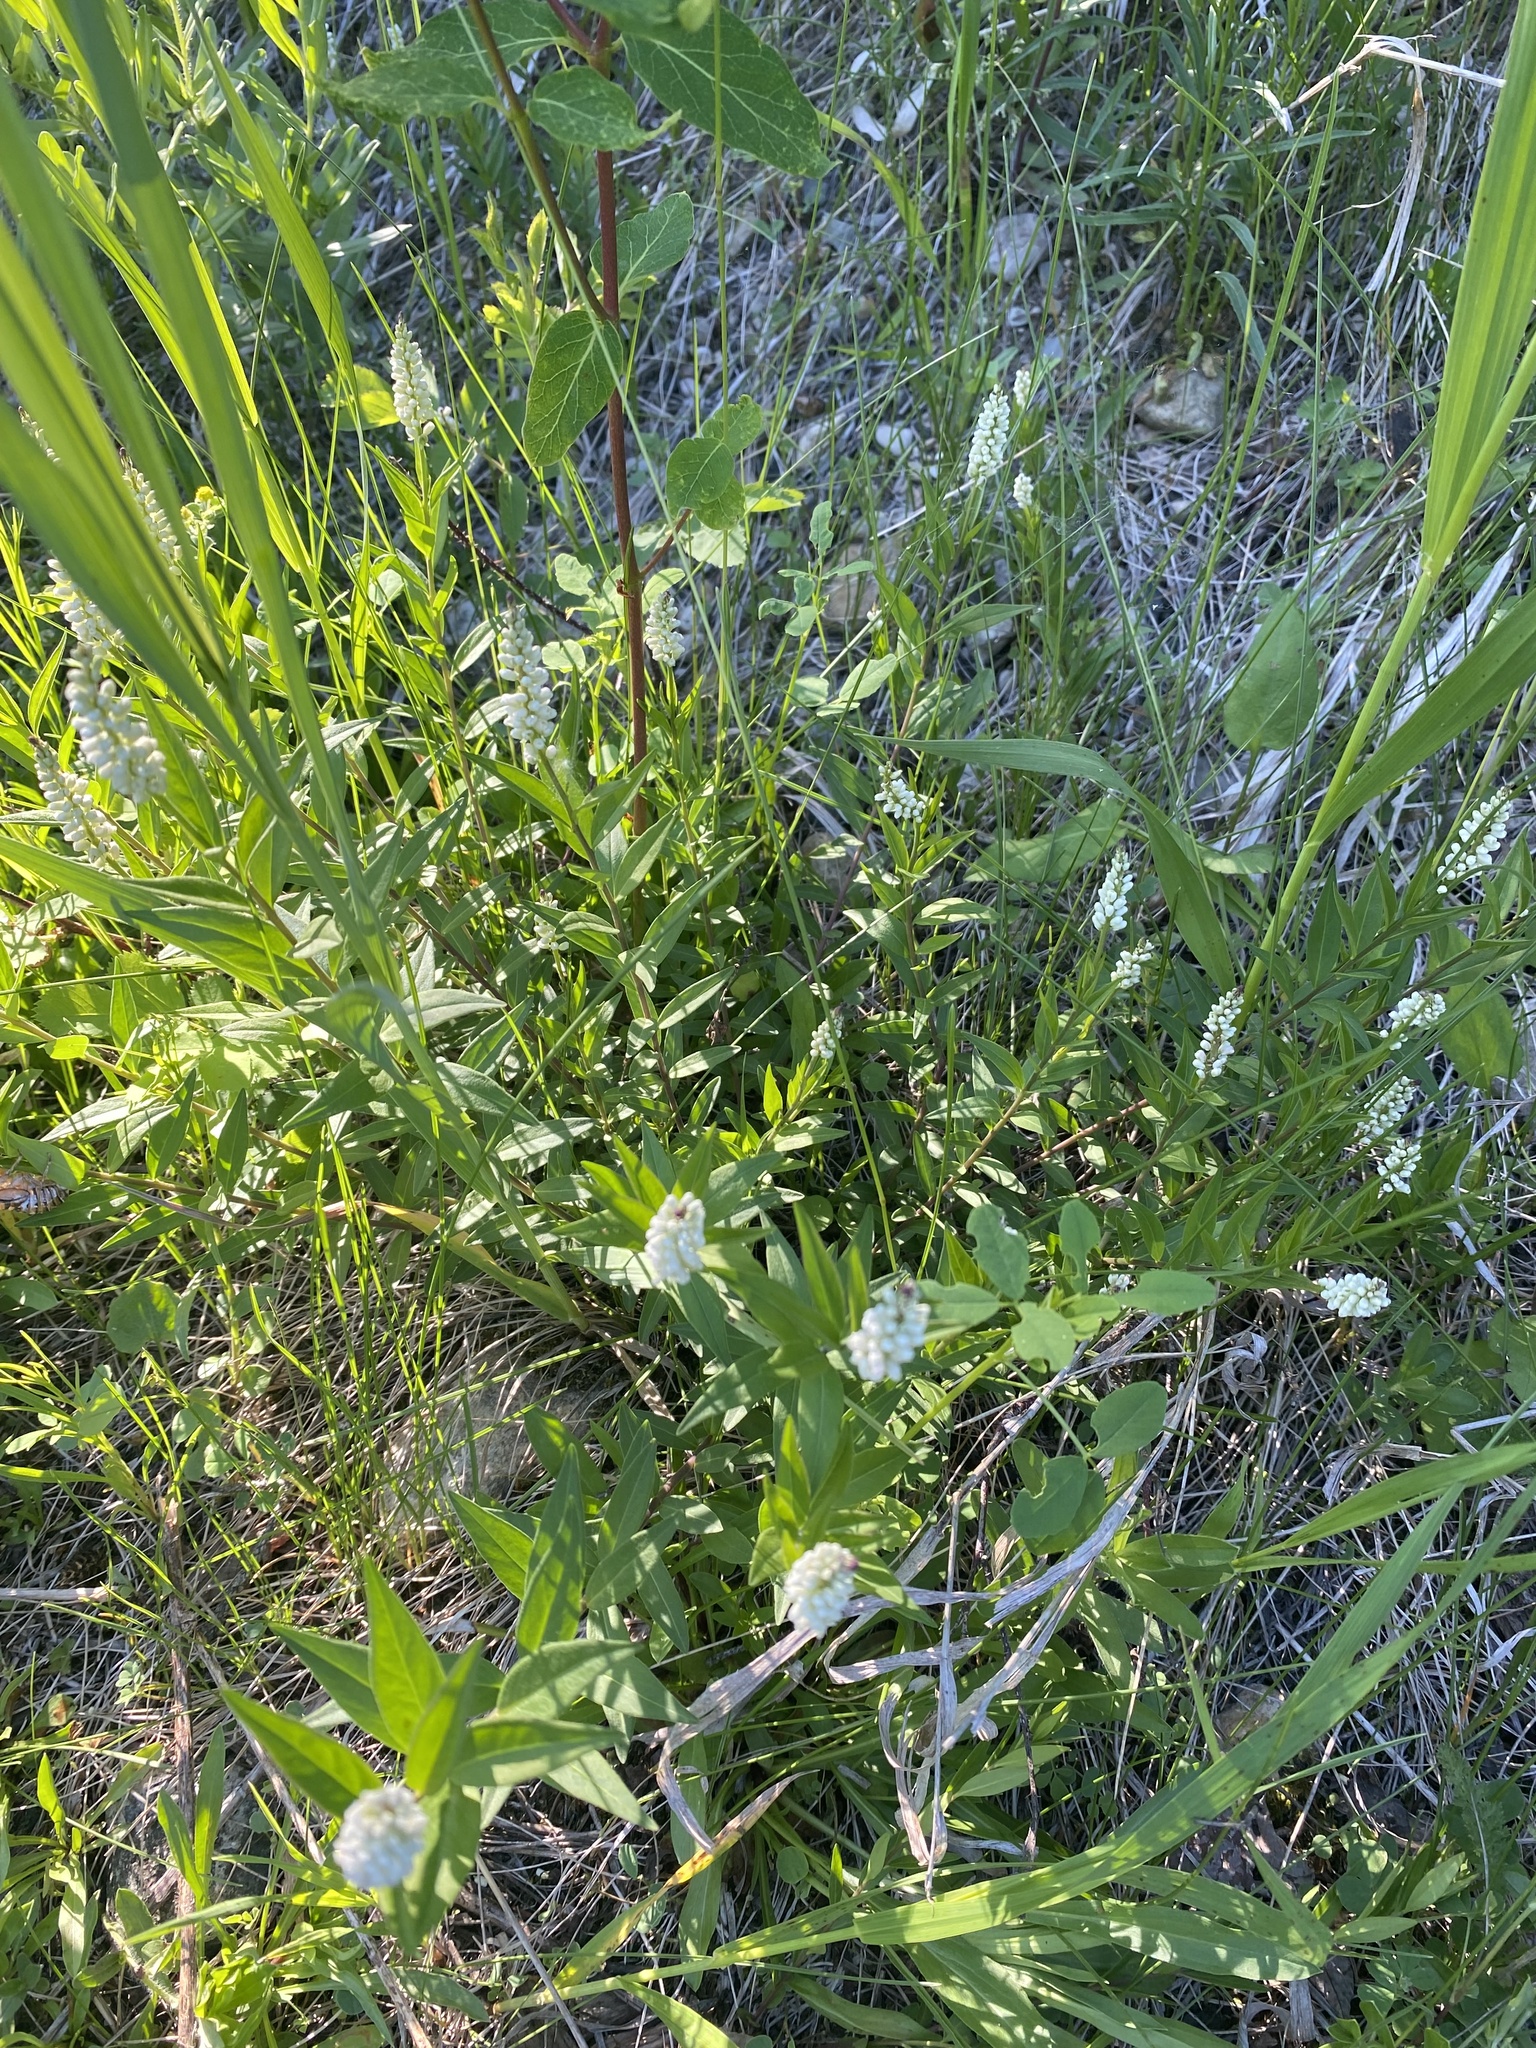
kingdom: Plantae
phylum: Tracheophyta
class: Magnoliopsida
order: Fabales
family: Polygalaceae
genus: Polygala
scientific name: Polygala senega
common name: Seneca snakeroot
